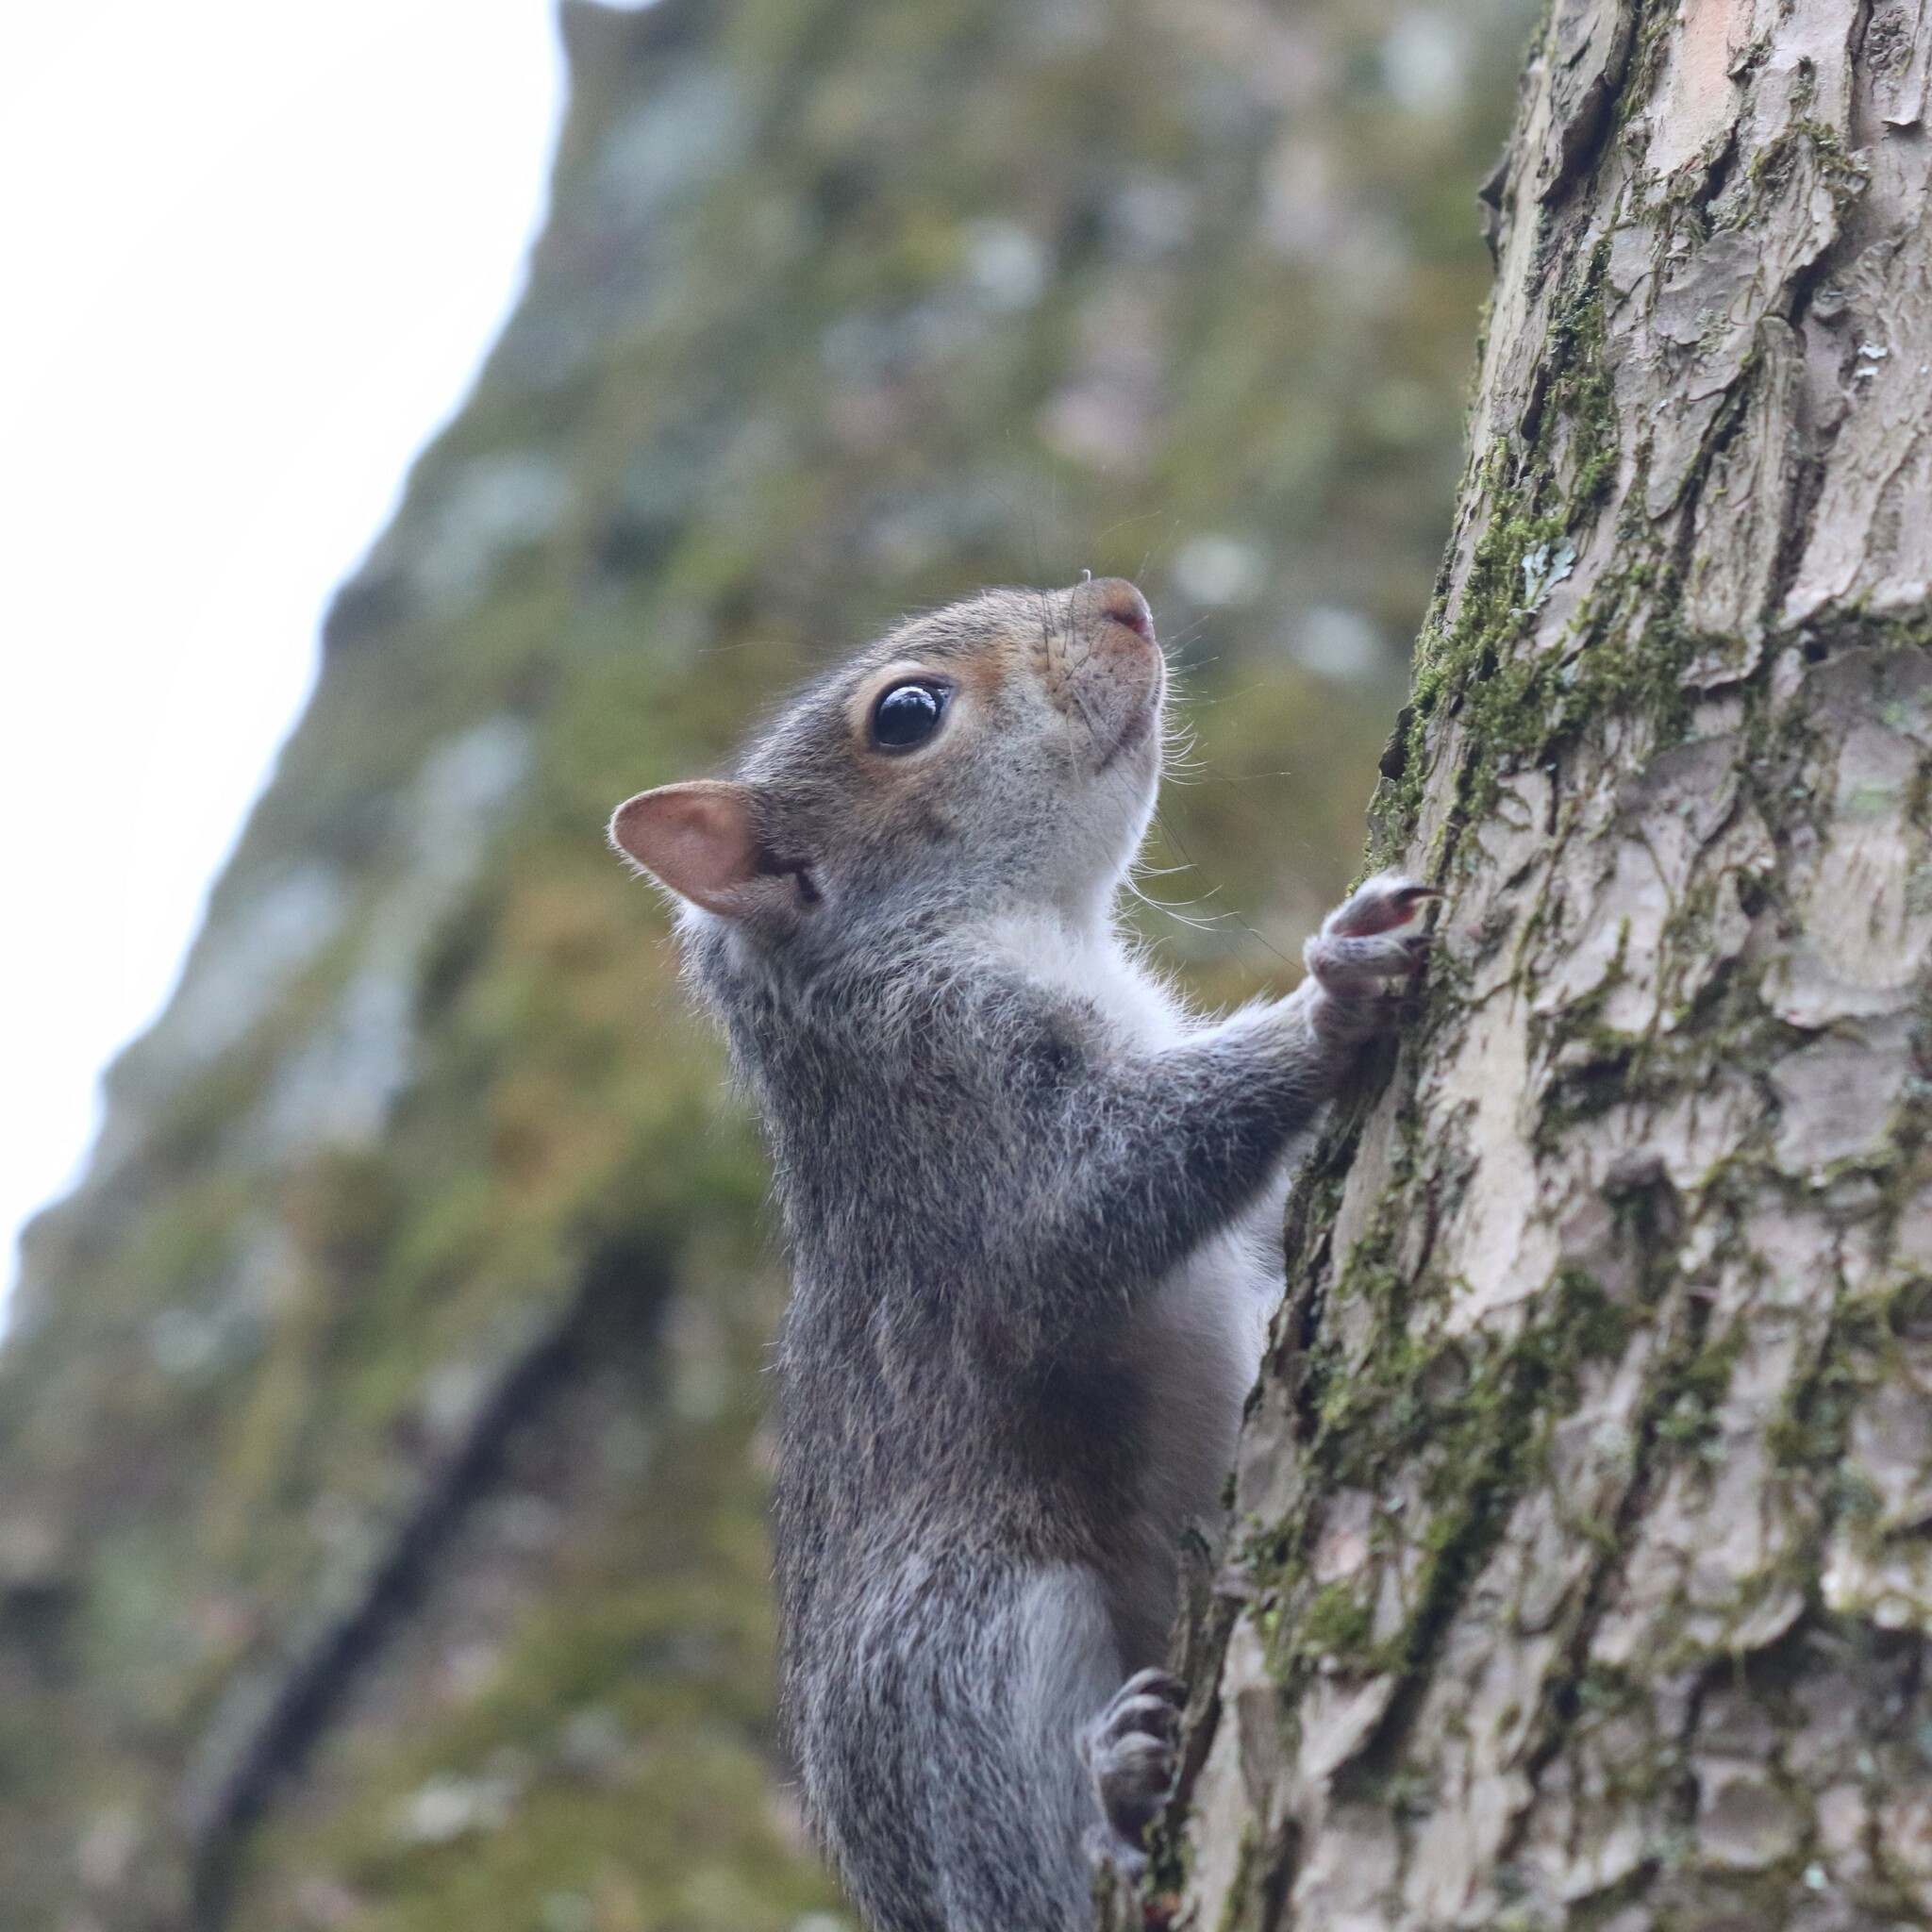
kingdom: Animalia
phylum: Chordata
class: Mammalia
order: Rodentia
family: Sciuridae
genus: Sciurus
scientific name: Sciurus carolinensis
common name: Eastern gray squirrel
